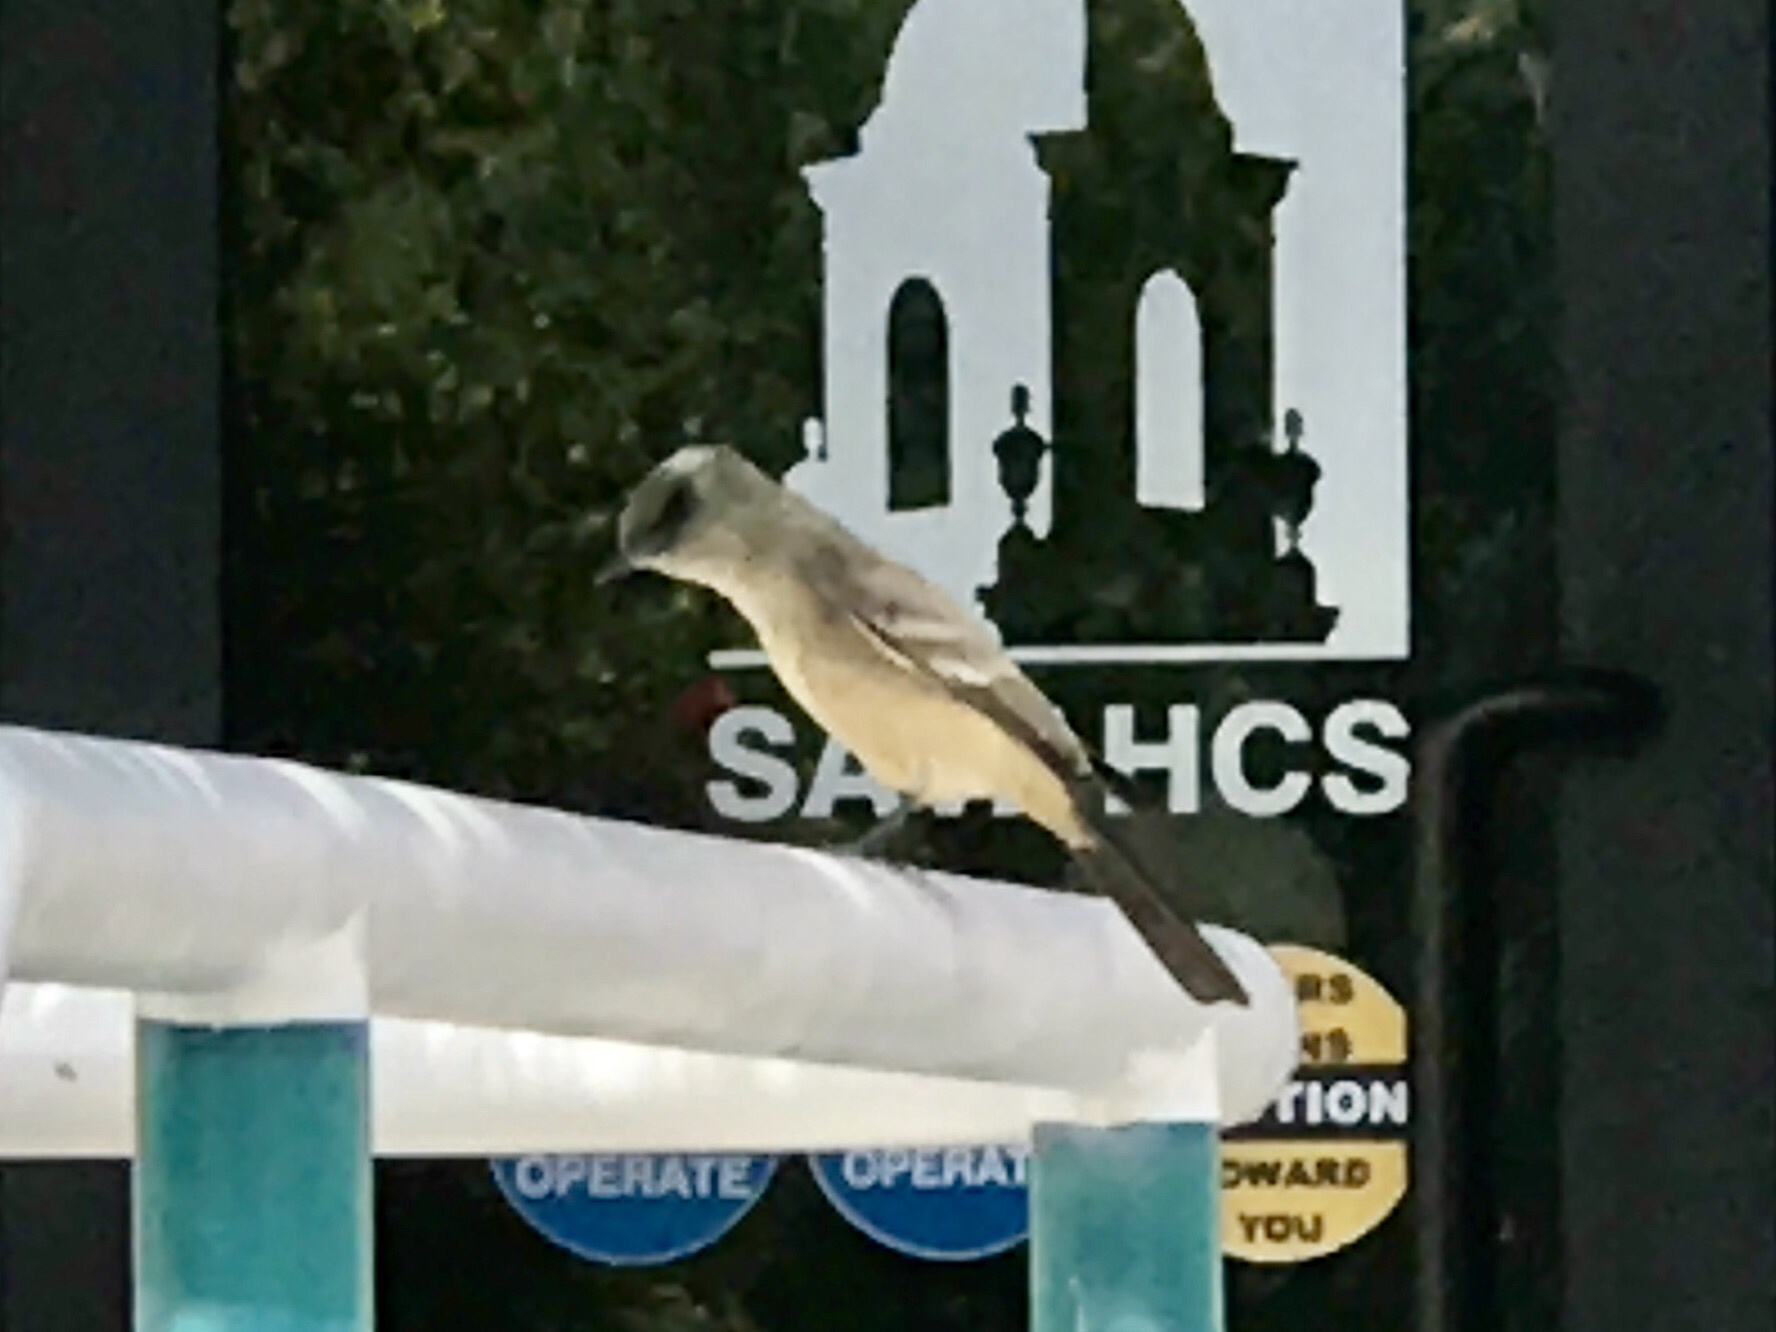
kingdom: Animalia
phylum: Chordata
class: Aves
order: Passeriformes
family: Tyrannidae
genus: Sayornis
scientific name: Sayornis saya
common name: Say's phoebe
